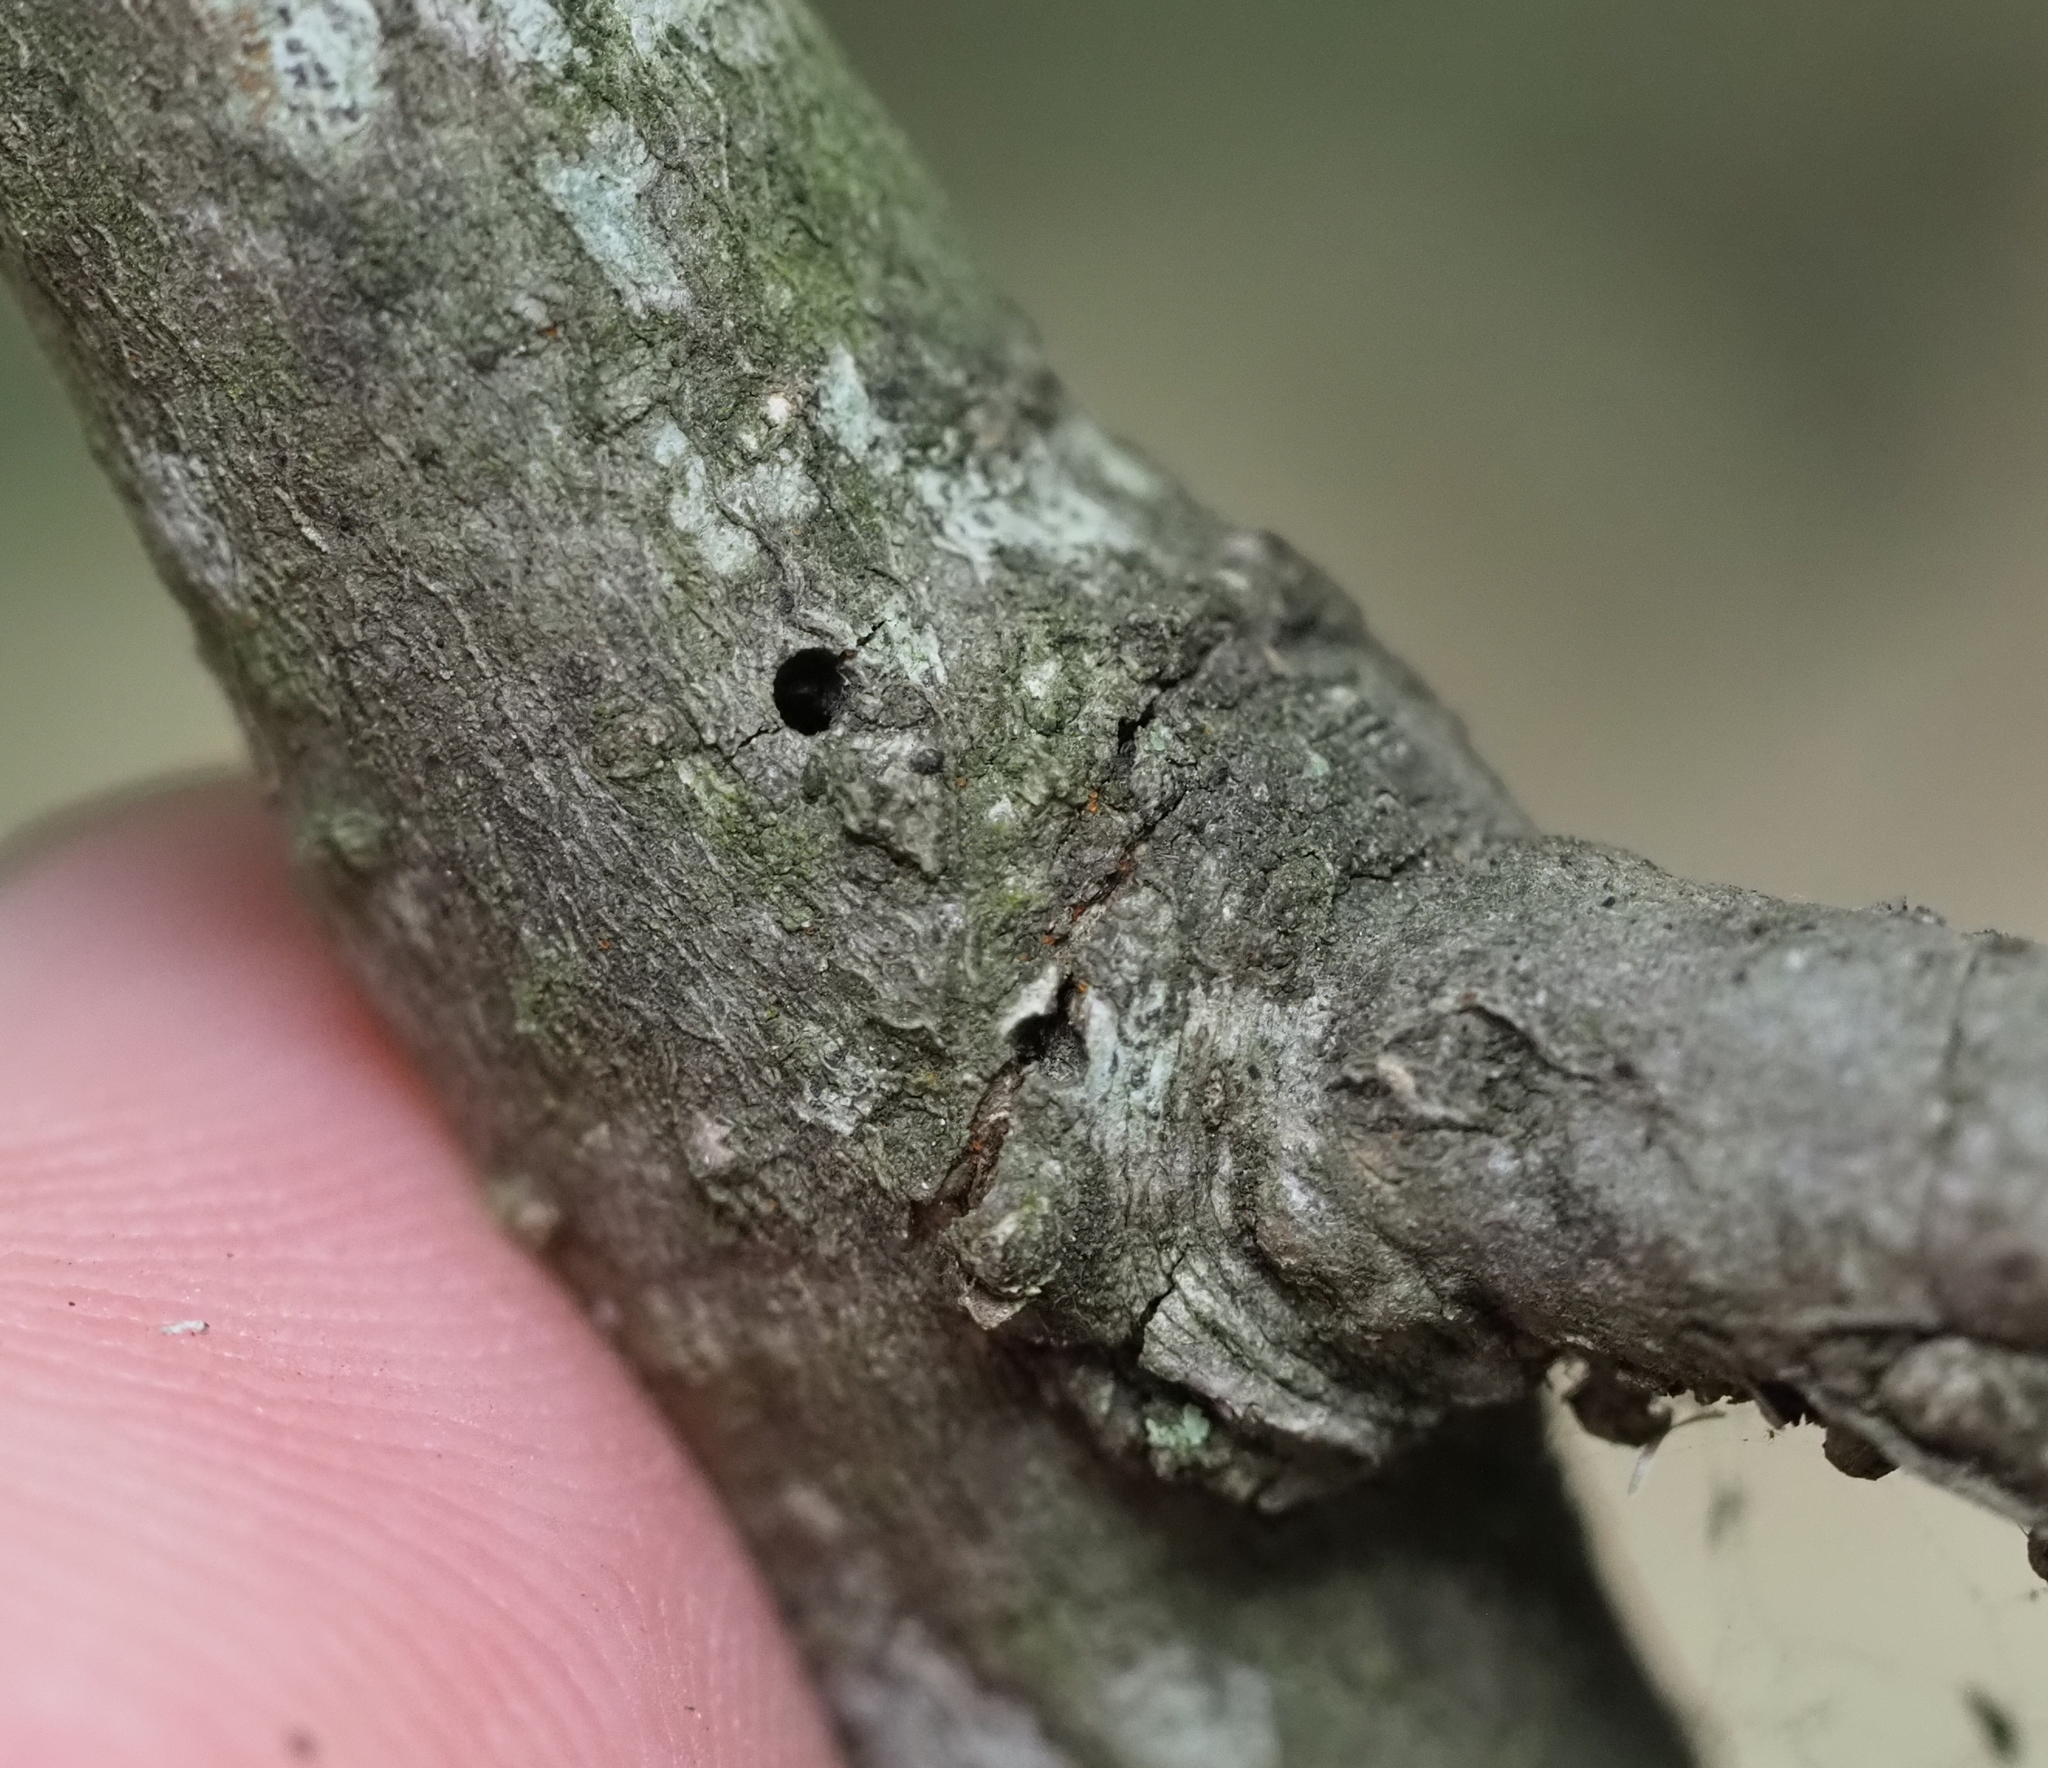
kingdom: Animalia
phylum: Arthropoda
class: Insecta
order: Hymenoptera
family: Cynipidae
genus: Neuroterus
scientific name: Neuroterus valhalla
